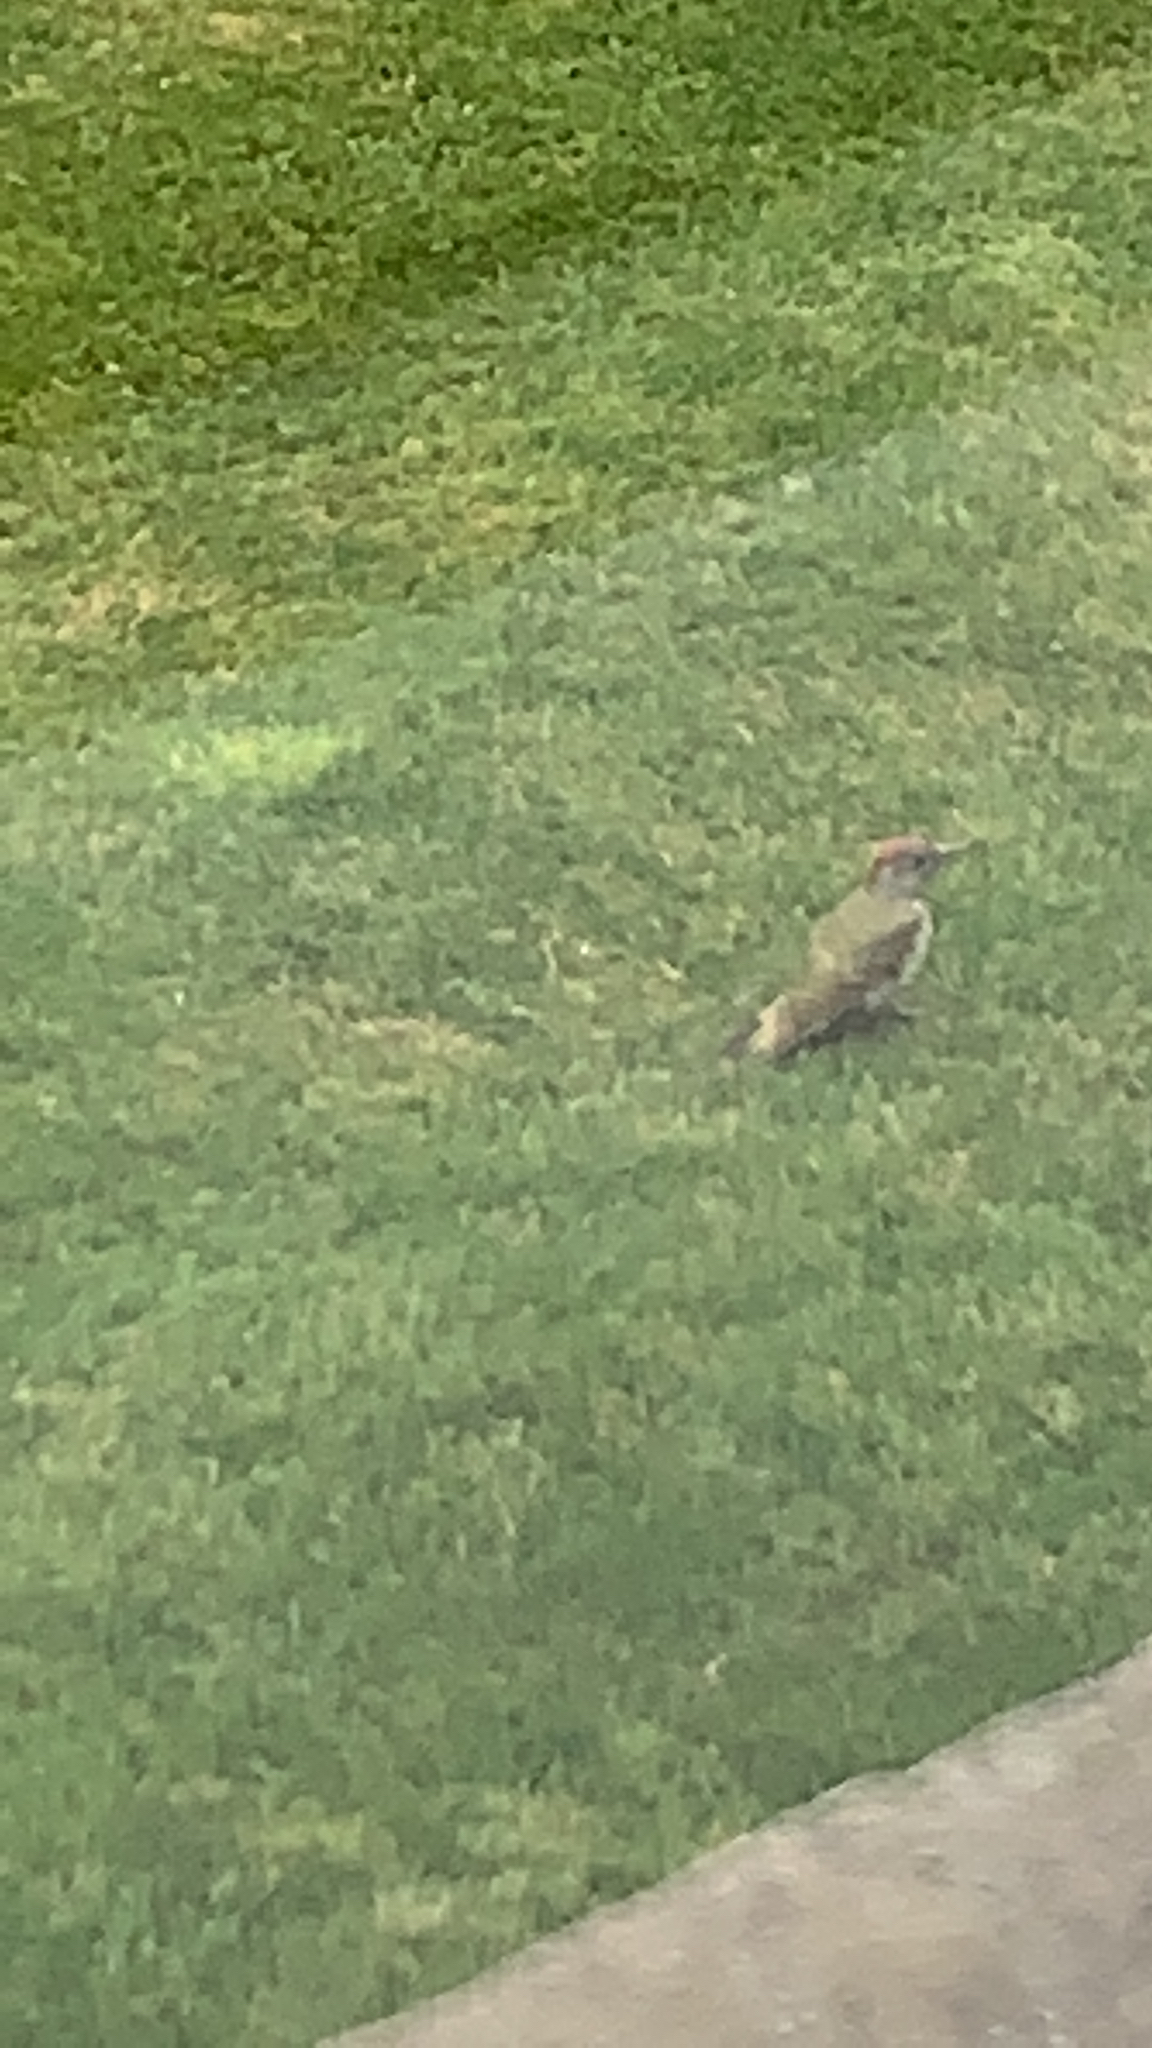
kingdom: Animalia
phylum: Chordata
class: Aves
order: Piciformes
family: Picidae
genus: Picus
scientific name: Picus viridis
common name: European green woodpecker
